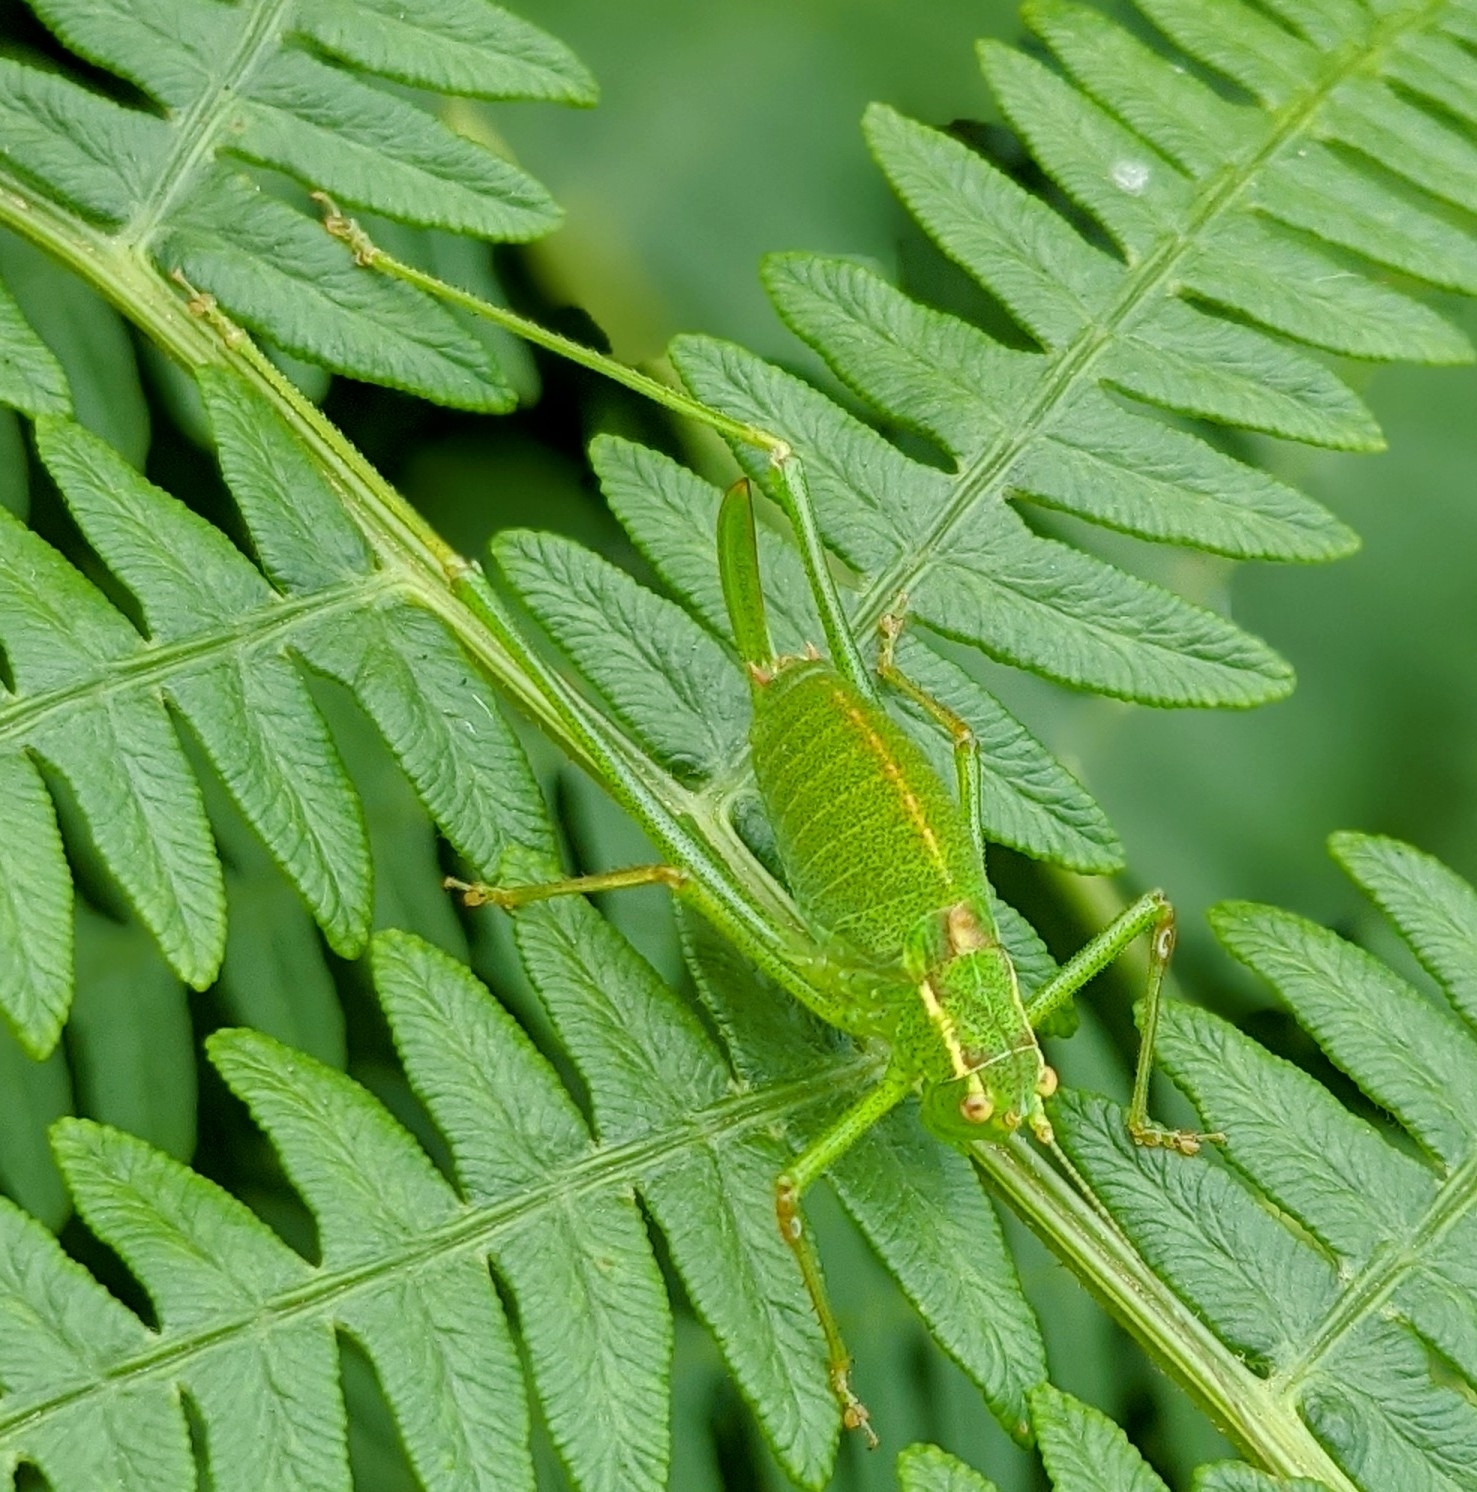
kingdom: Animalia
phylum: Arthropoda
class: Insecta
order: Orthoptera
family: Tettigoniidae
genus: Leptophyes
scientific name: Leptophyes punctatissima
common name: Speckled bush-cricket
